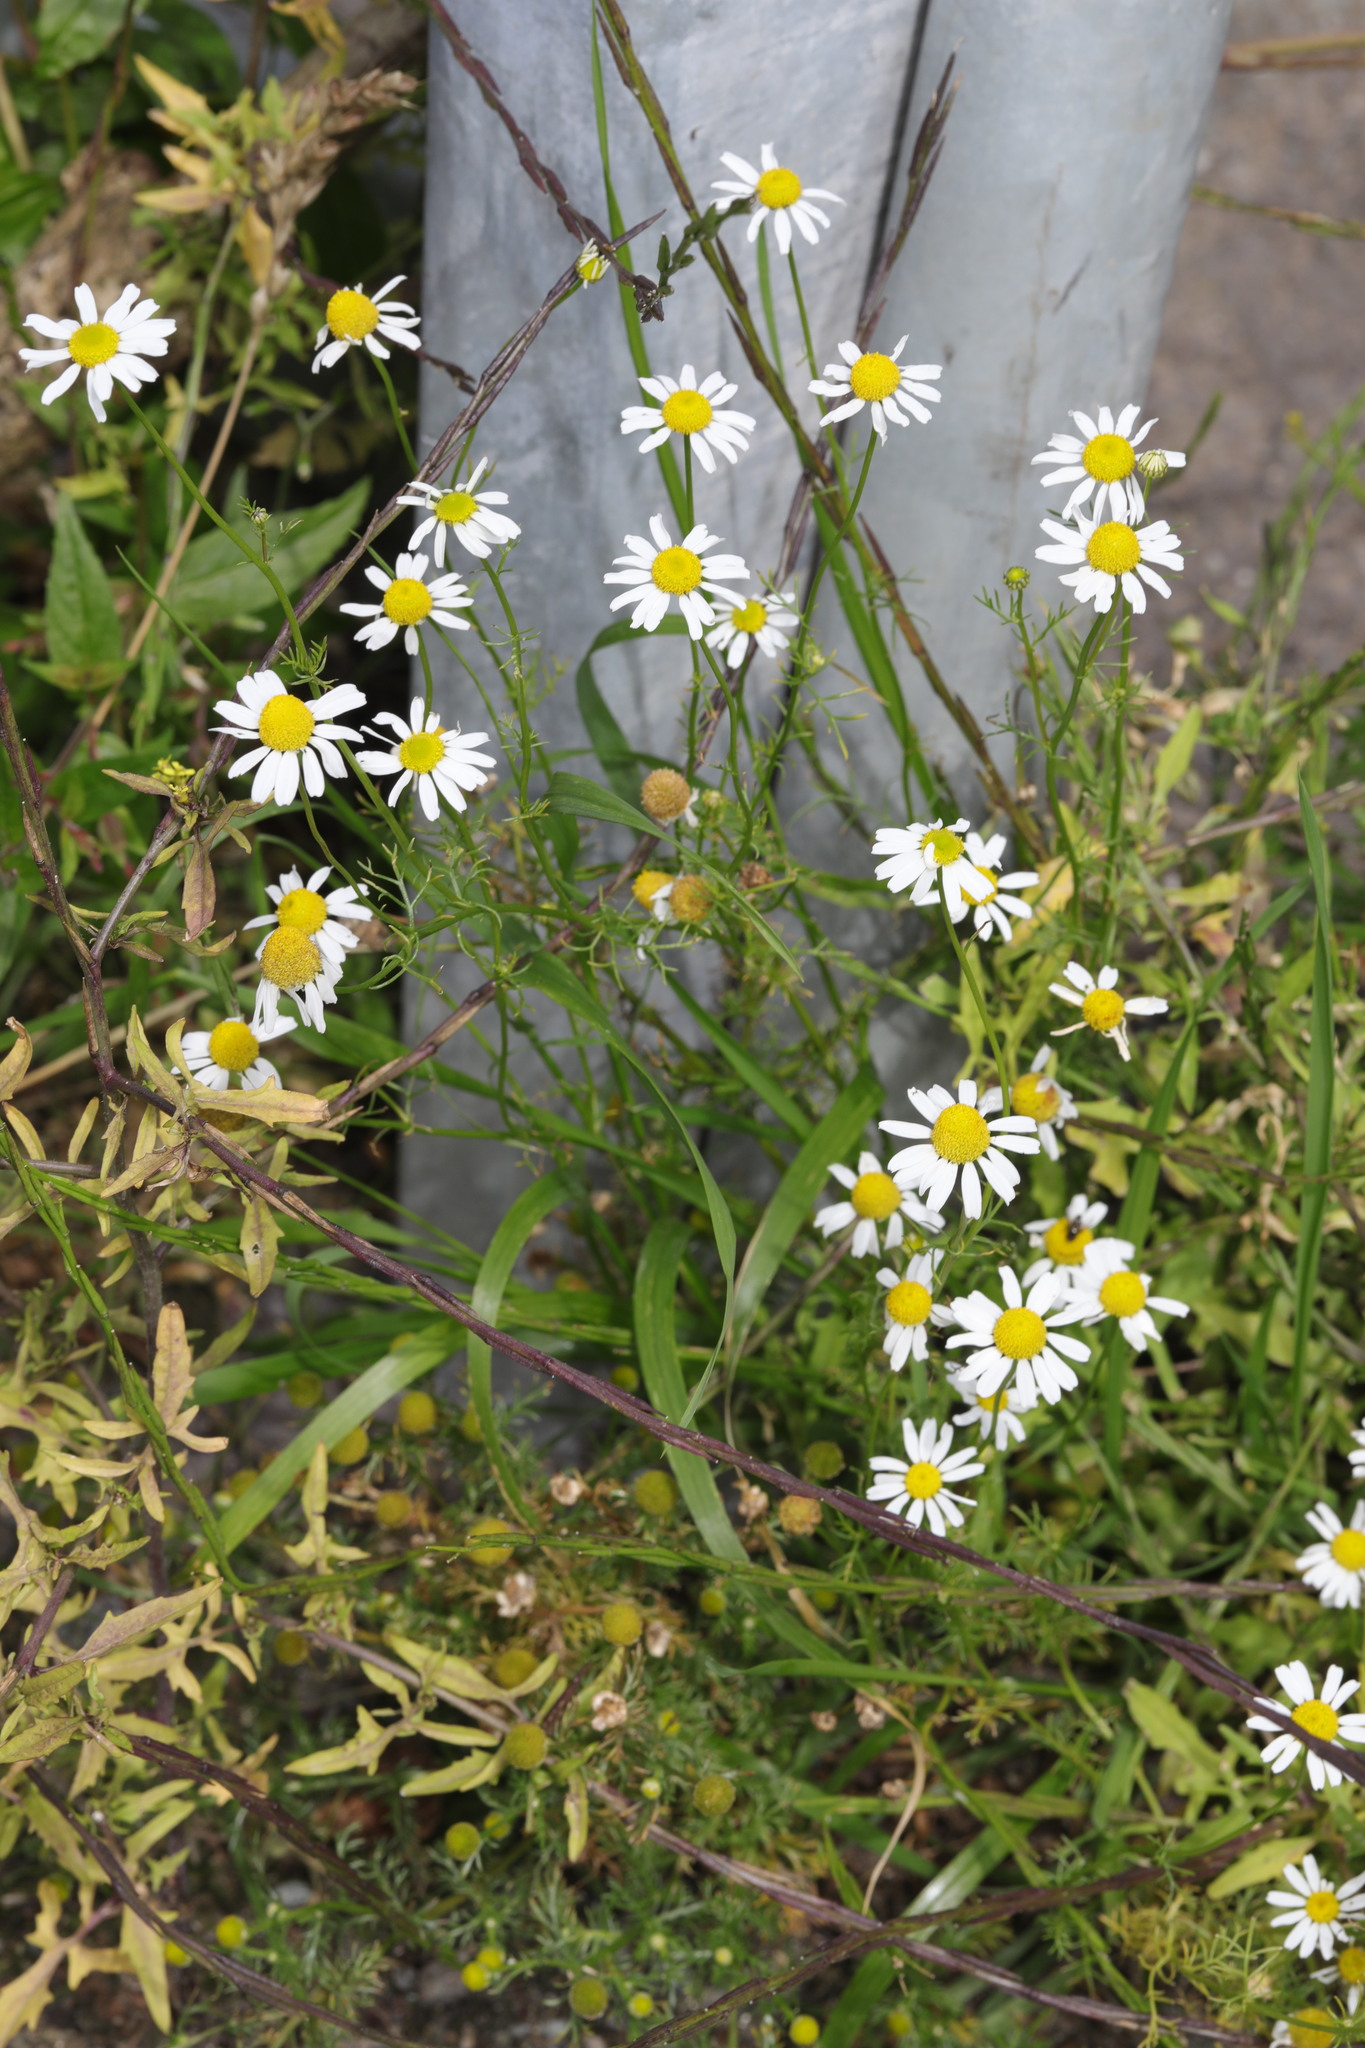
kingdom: Plantae
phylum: Tracheophyta
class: Magnoliopsida
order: Asterales
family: Asteraceae
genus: Tripleurospermum
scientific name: Tripleurospermum inodorum
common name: Scentless mayweed
